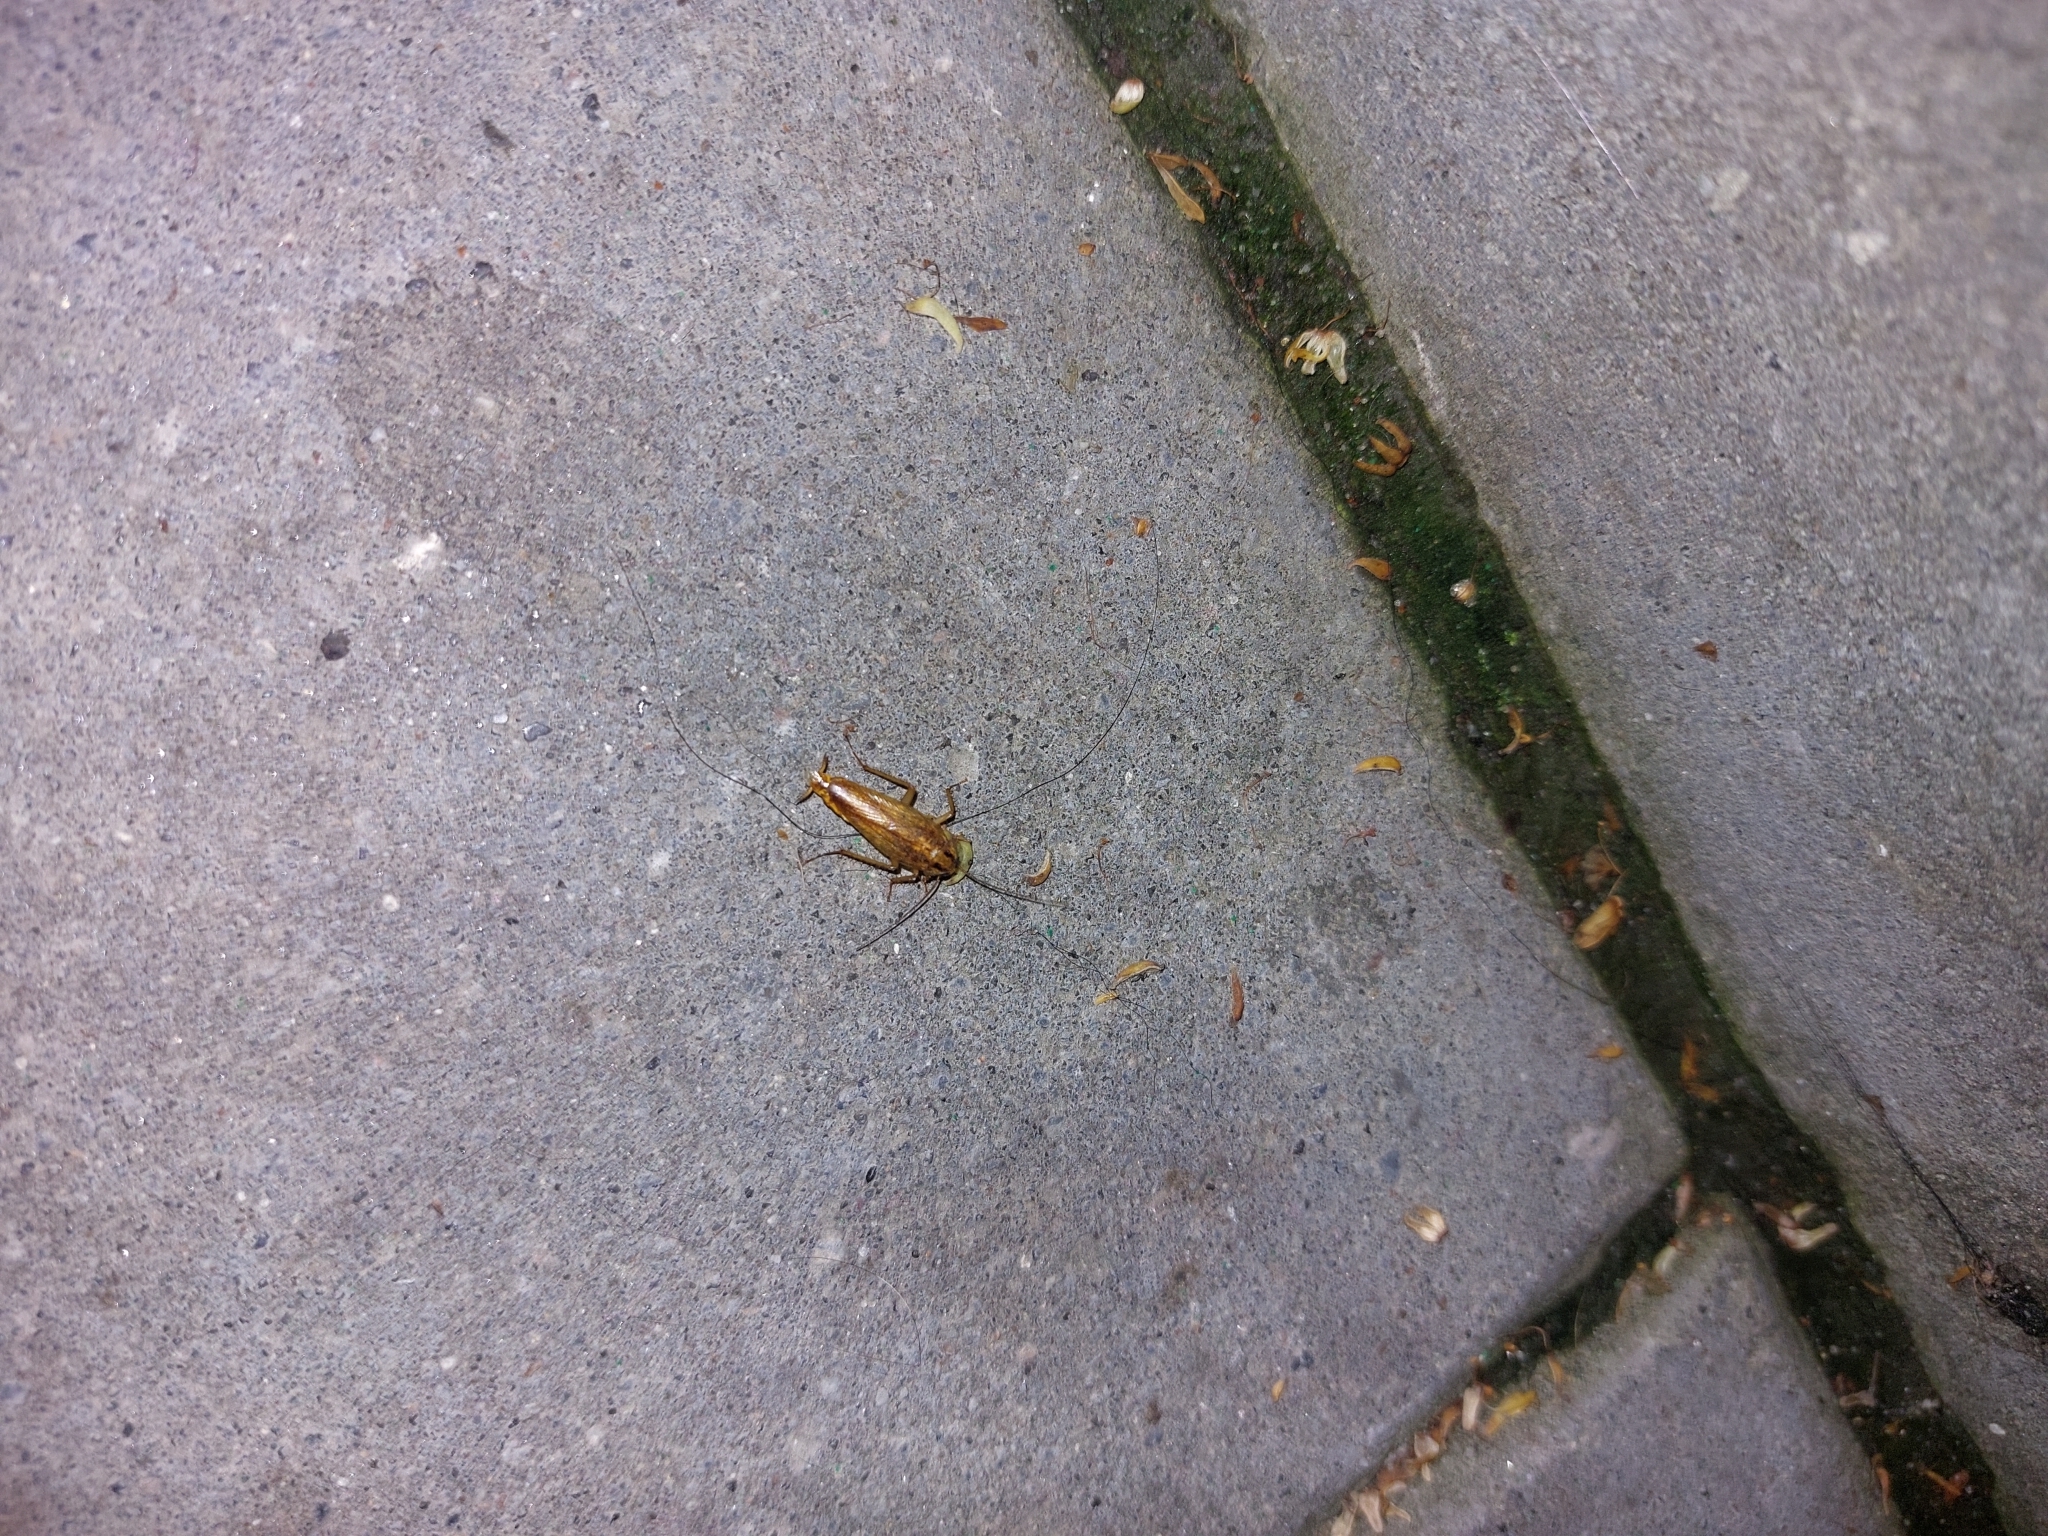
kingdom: Animalia
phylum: Arthropoda
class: Insecta
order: Blattodea
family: Ectobiidae
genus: Blattella
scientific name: Blattella germanica
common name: German cockroach
